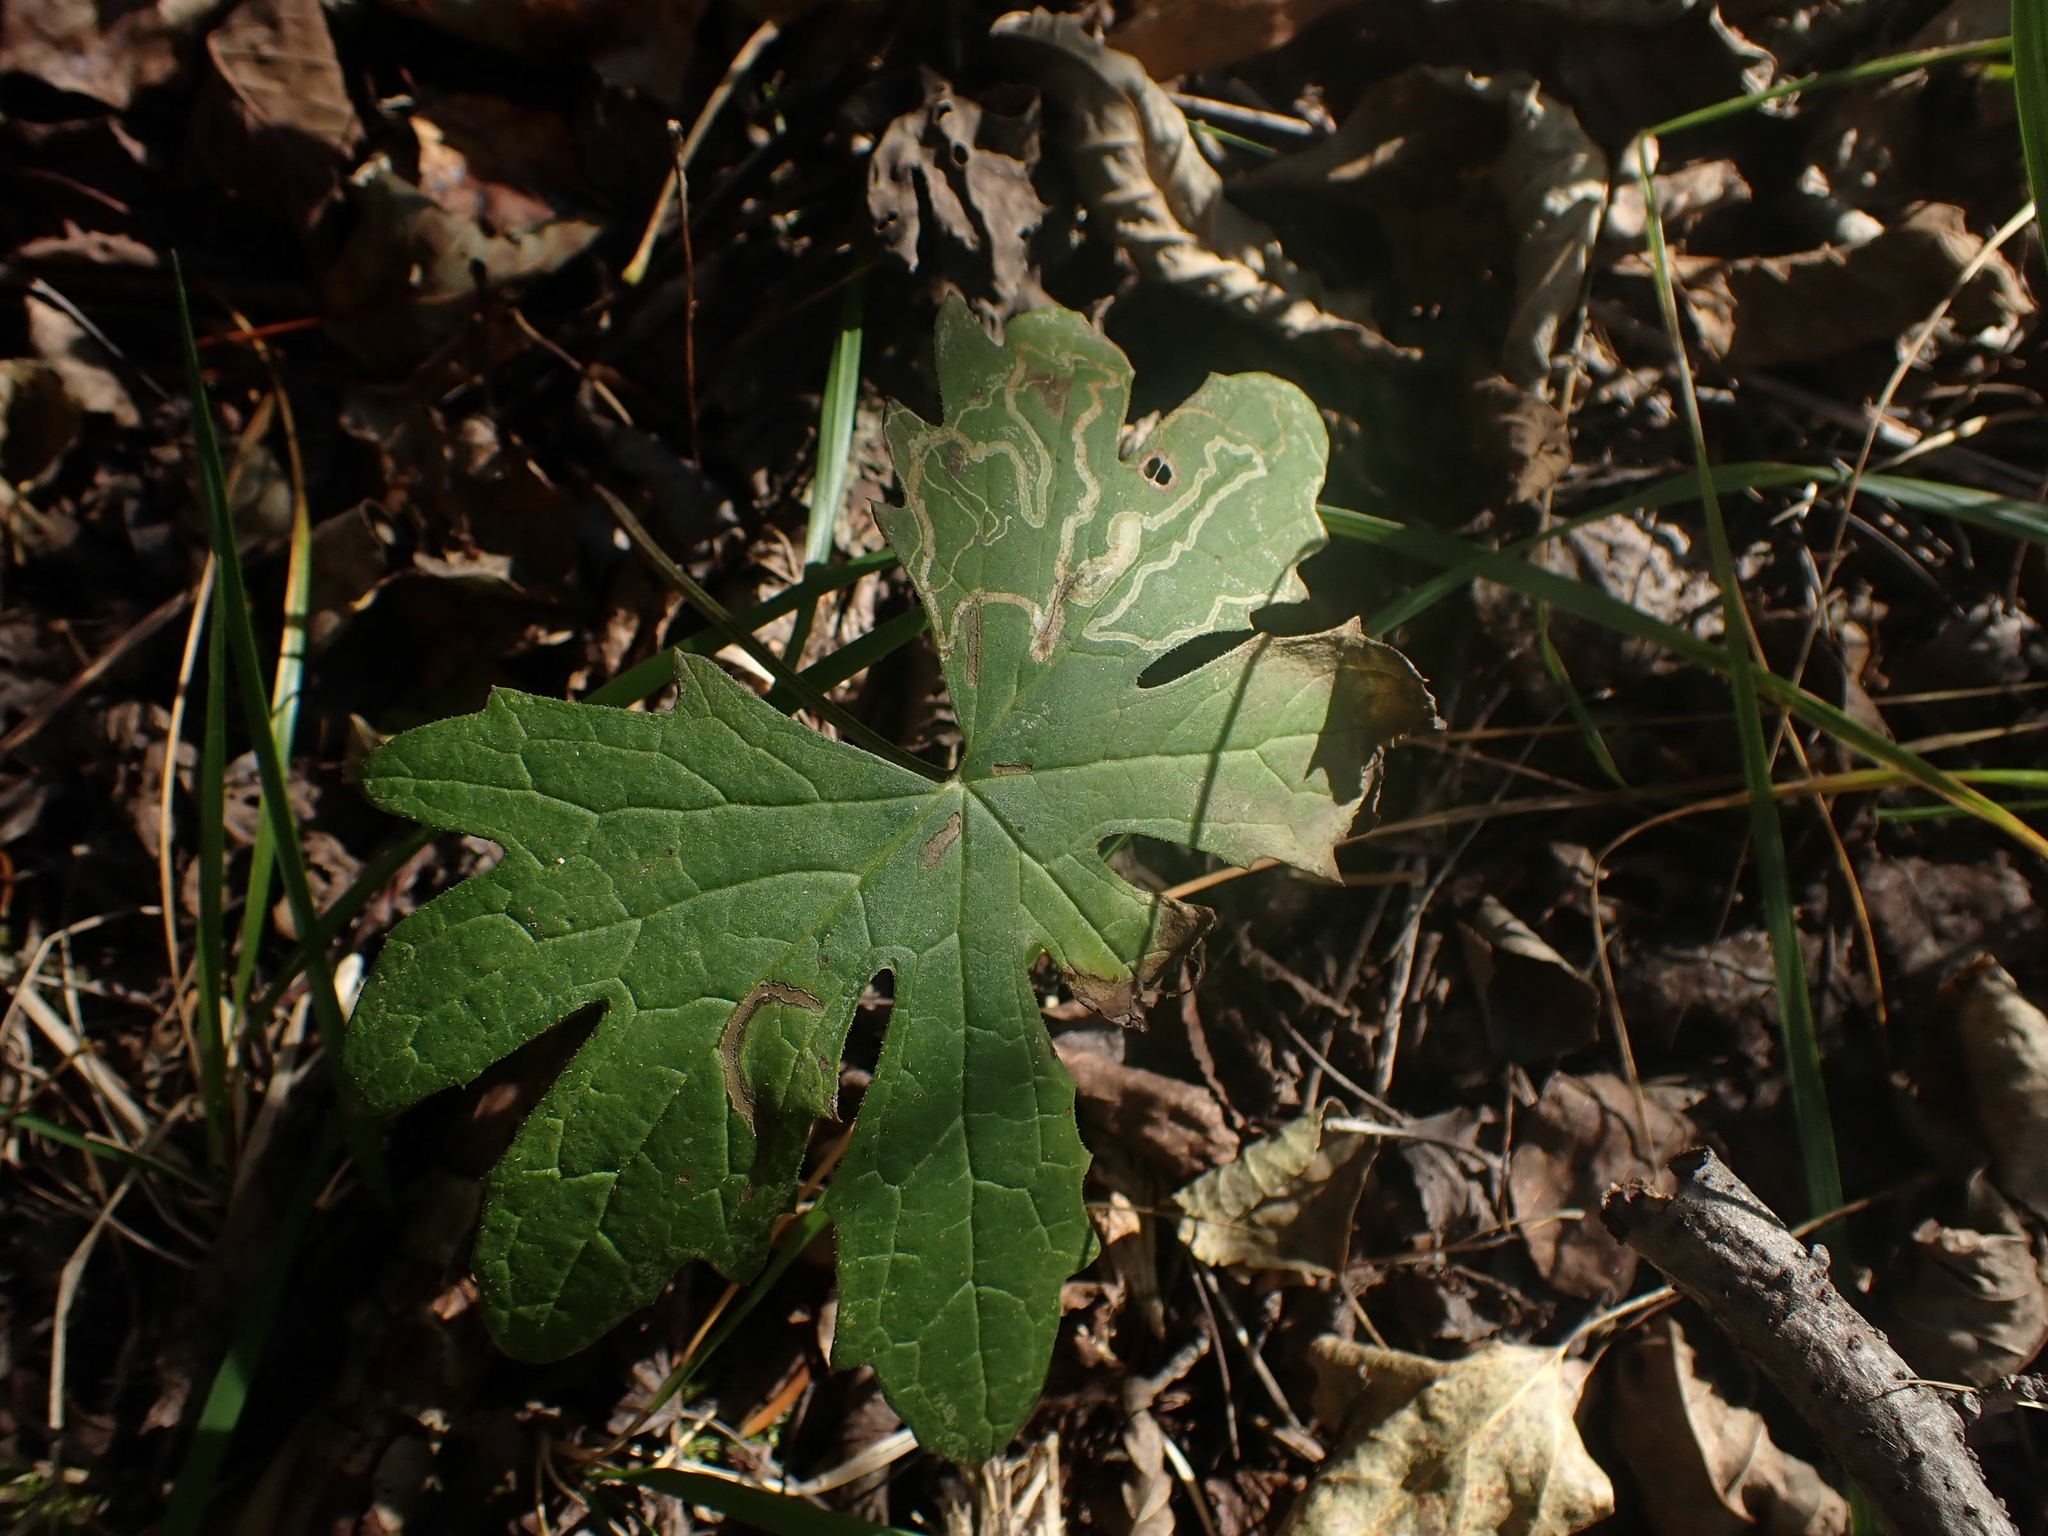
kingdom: Plantae
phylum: Tracheophyta
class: Magnoliopsida
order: Asterales
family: Asteraceae
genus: Petasites
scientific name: Petasites frigidus
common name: Arctic butterbur
